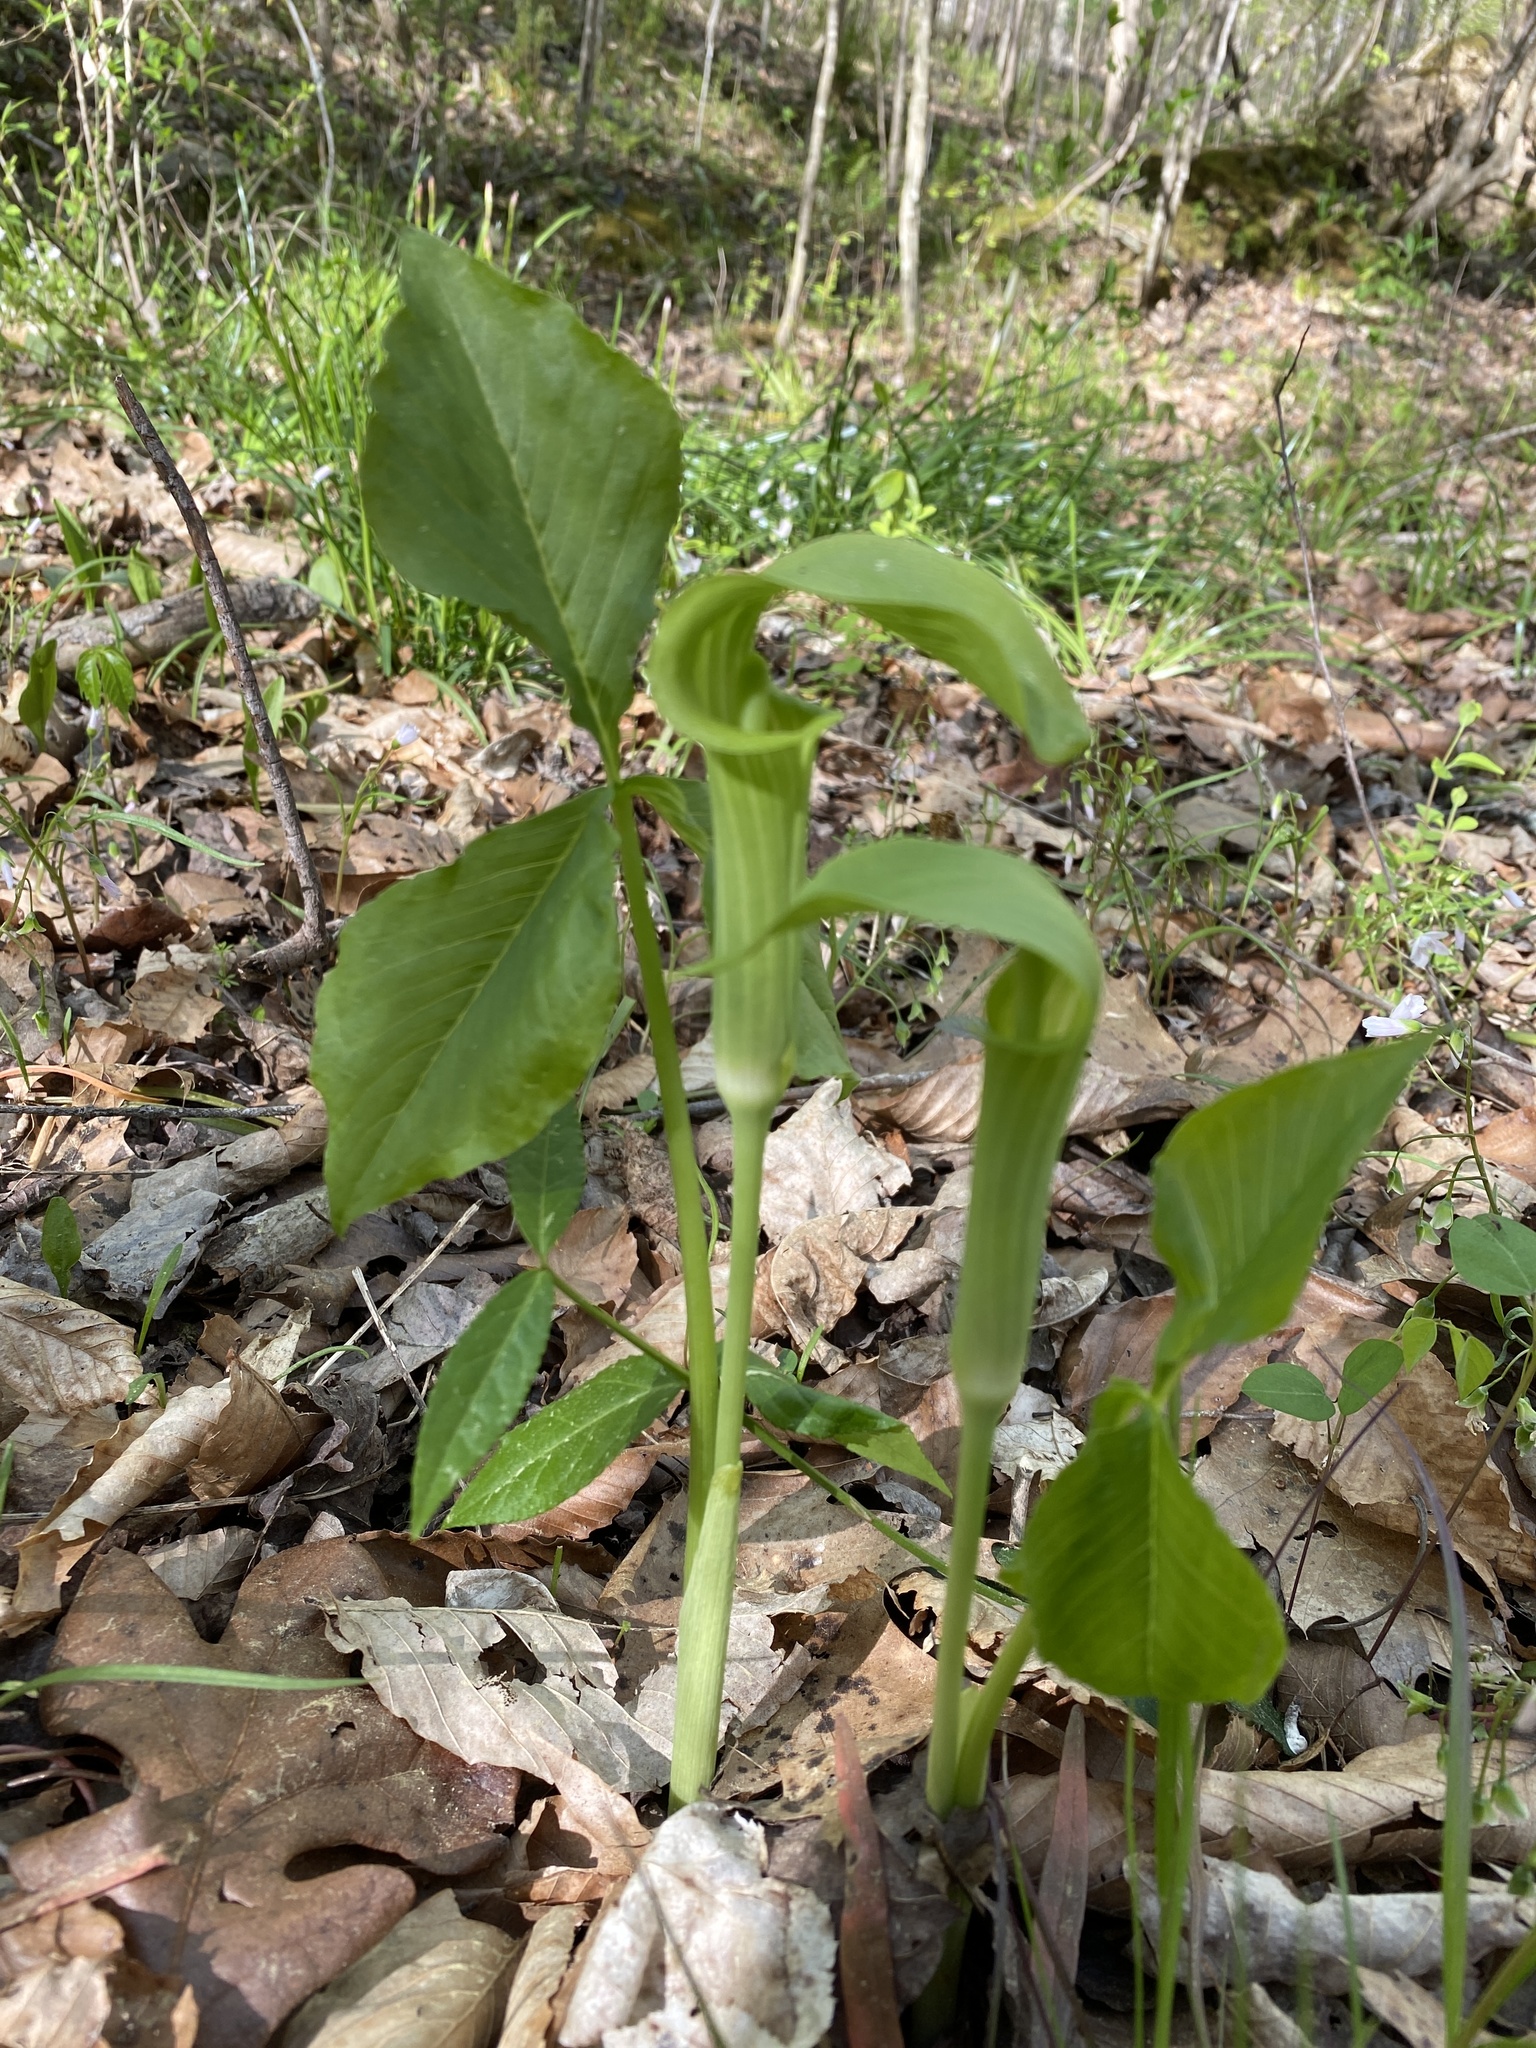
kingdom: Plantae
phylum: Tracheophyta
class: Liliopsida
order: Alismatales
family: Araceae
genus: Arisaema
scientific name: Arisaema triphyllum
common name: Jack-in-the-pulpit
